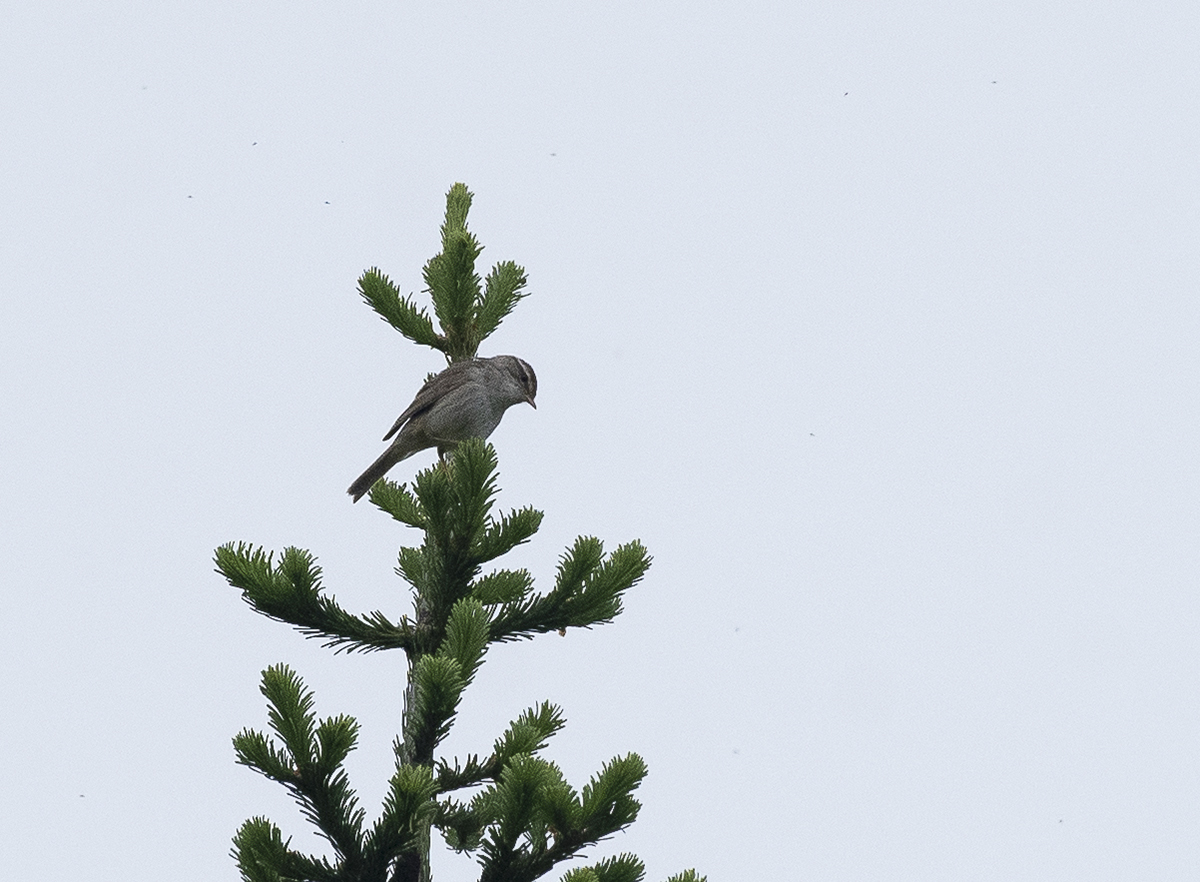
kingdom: Animalia
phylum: Chordata
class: Aves
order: Passeriformes
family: Phylloscopidae
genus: Phylloscopus
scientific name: Phylloscopus schwarzi
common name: Radde's warbler
